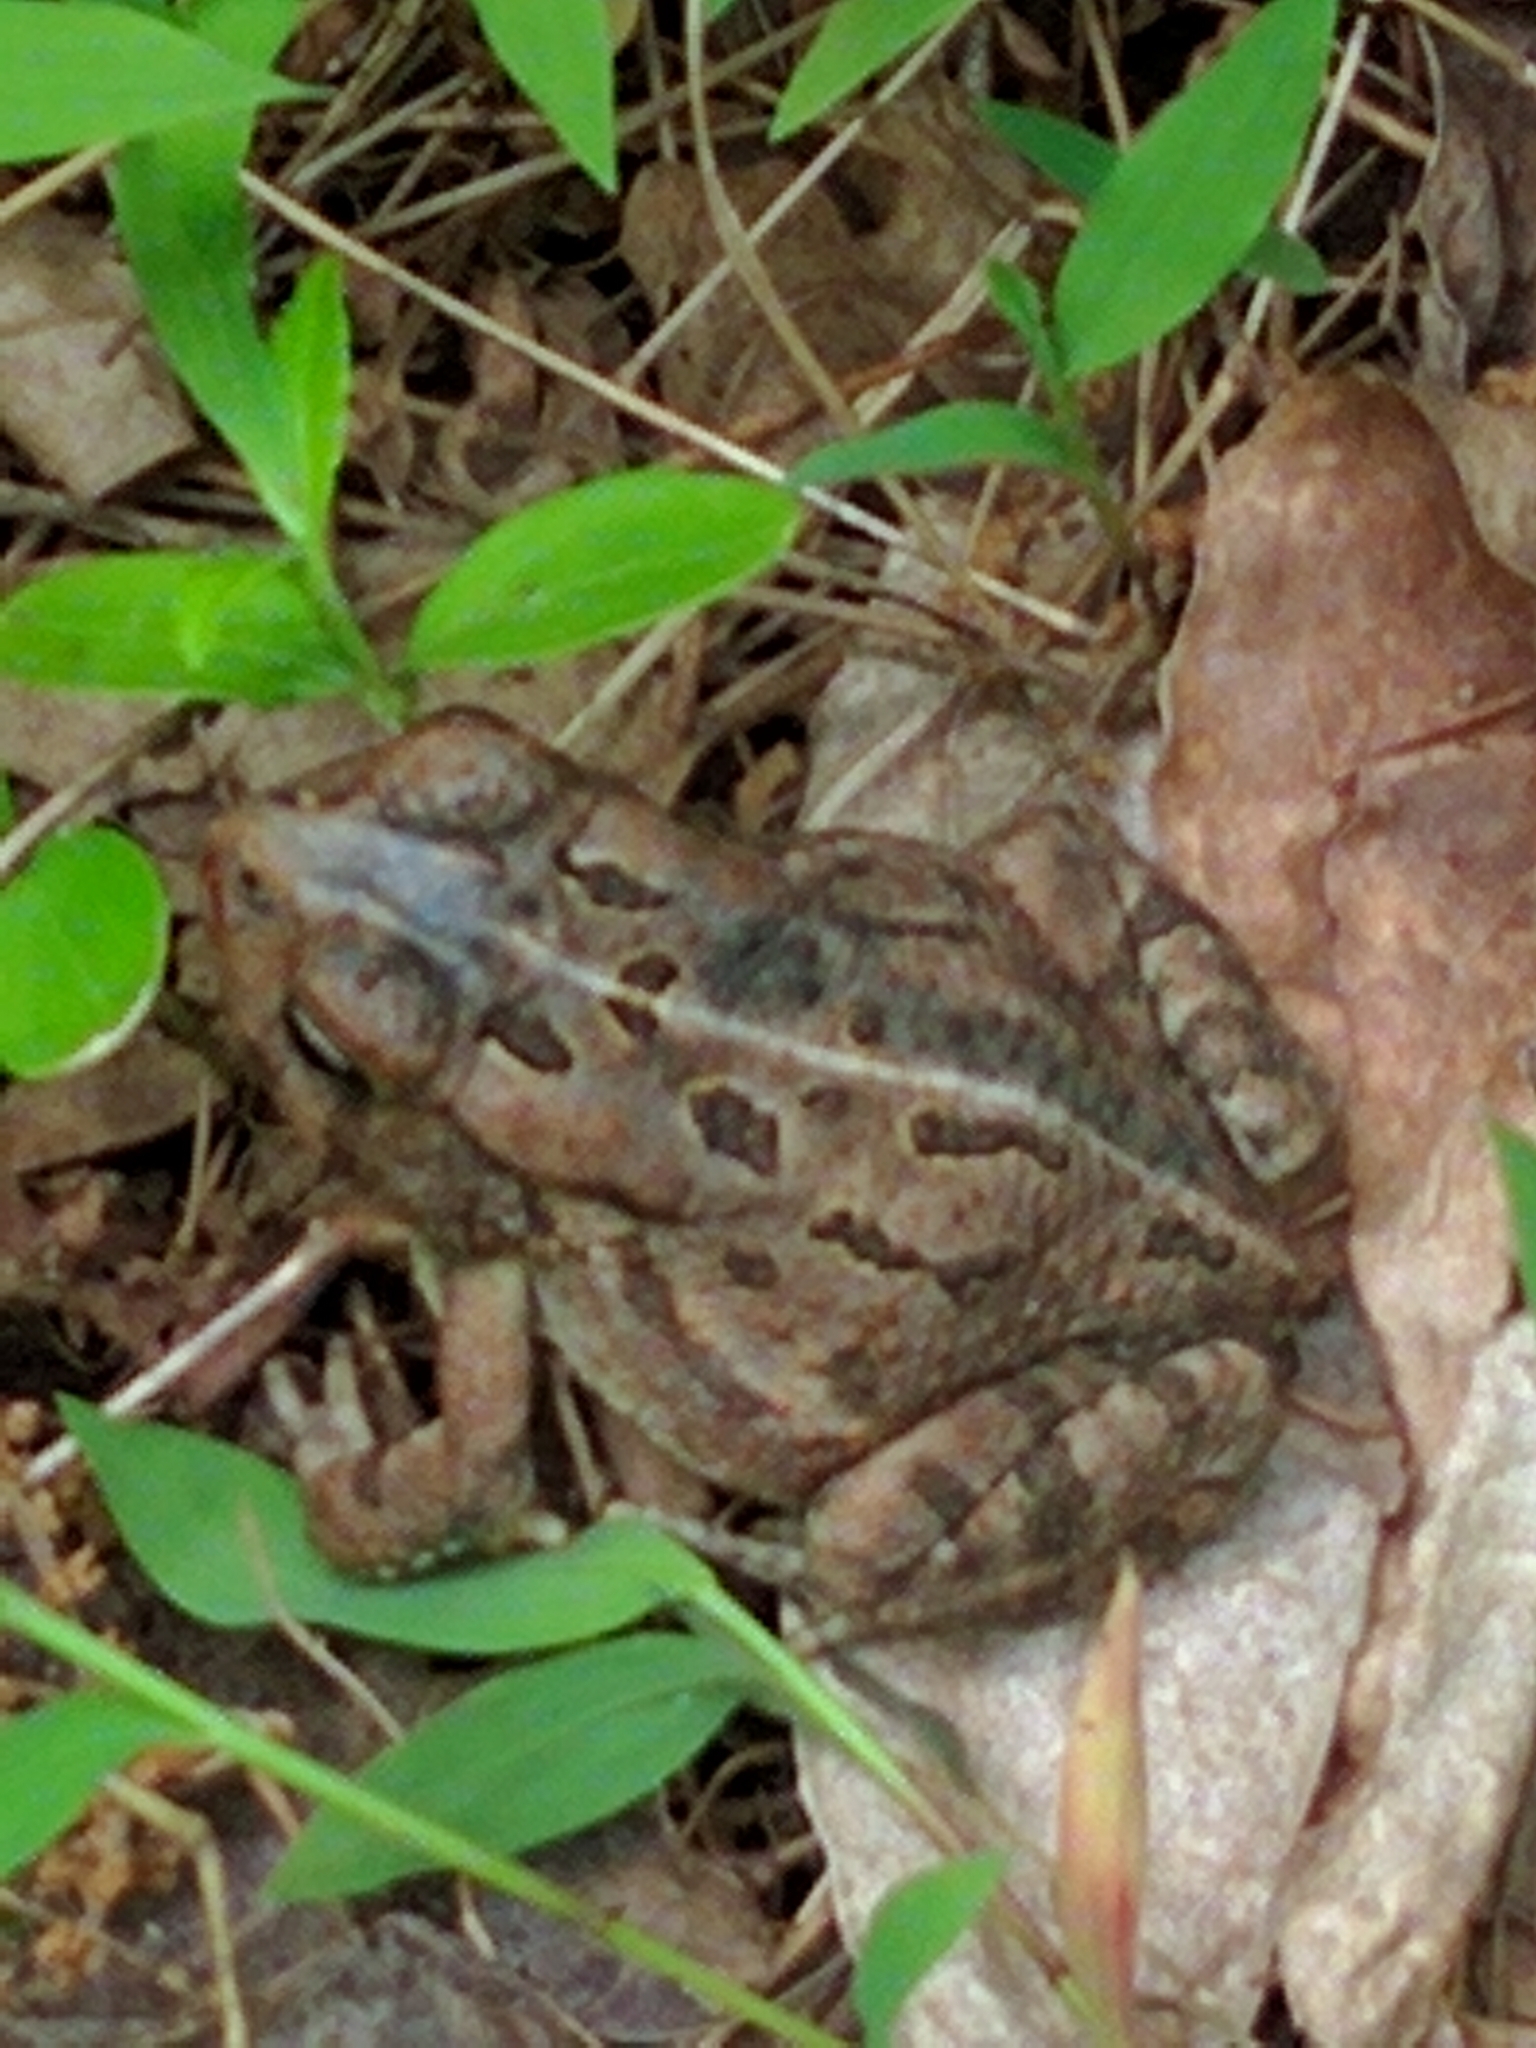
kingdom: Animalia
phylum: Chordata
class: Amphibia
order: Anura
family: Bufonidae
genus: Anaxyrus
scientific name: Anaxyrus fowleri
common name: Fowler's toad
